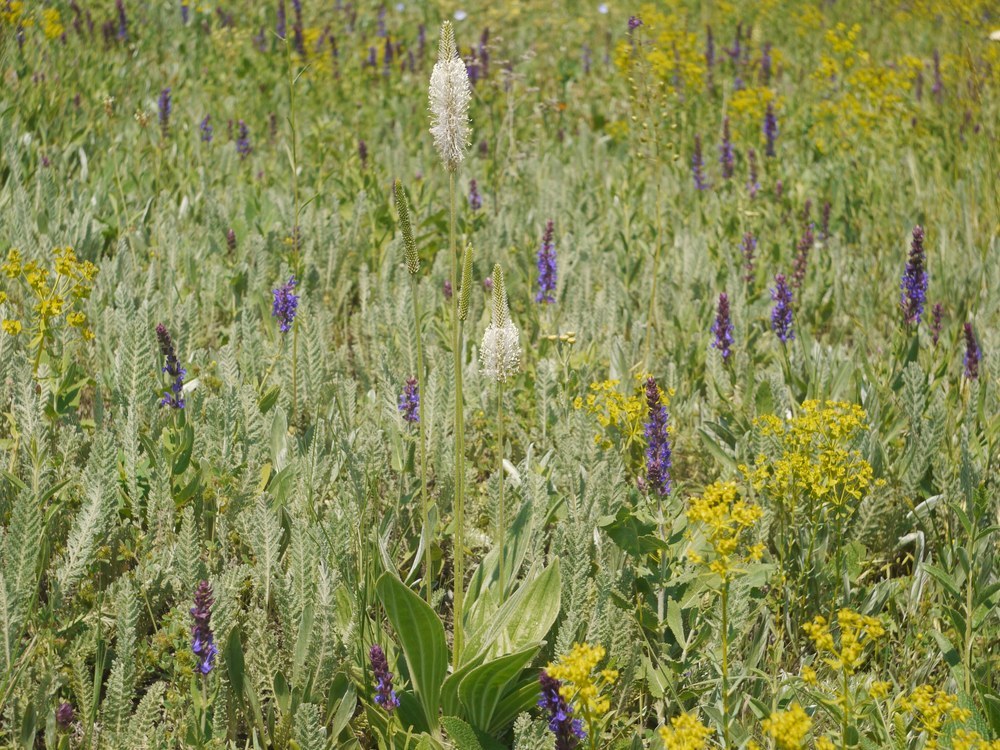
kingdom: Plantae
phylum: Tracheophyta
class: Magnoliopsida
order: Lamiales
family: Plantaginaceae
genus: Plantago
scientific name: Plantago media
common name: Hoary plantain
